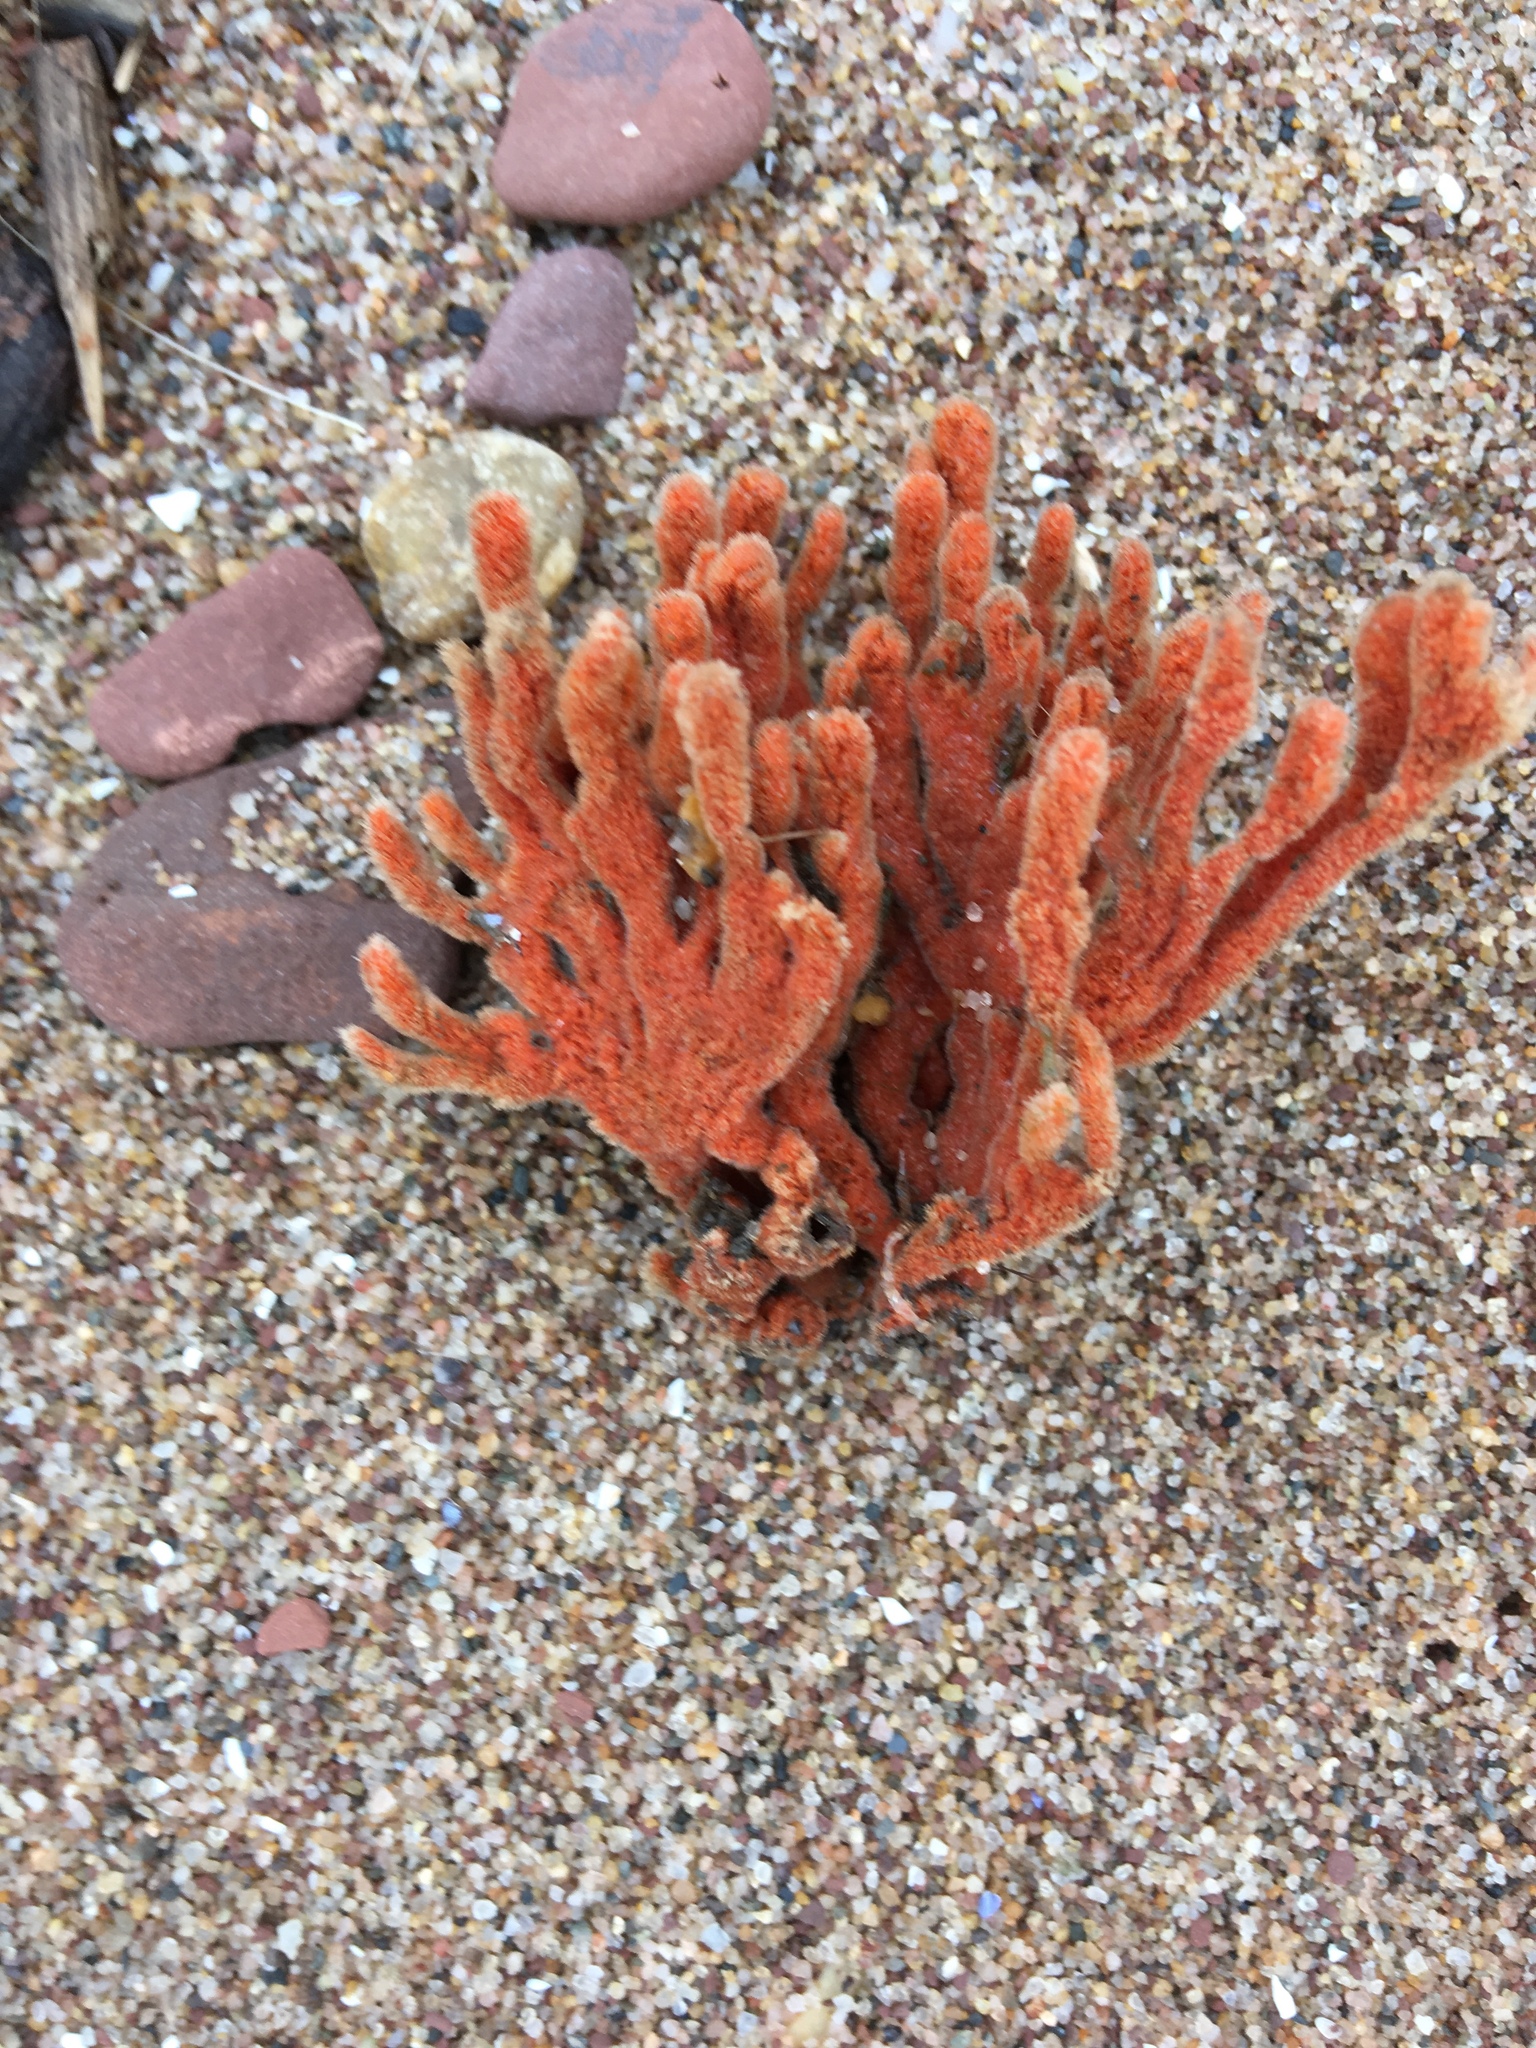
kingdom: Animalia
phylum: Porifera
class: Demospongiae
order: Poecilosclerida
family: Microcionidae
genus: Clathria
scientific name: Clathria prolifera
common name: Red beard sponge
